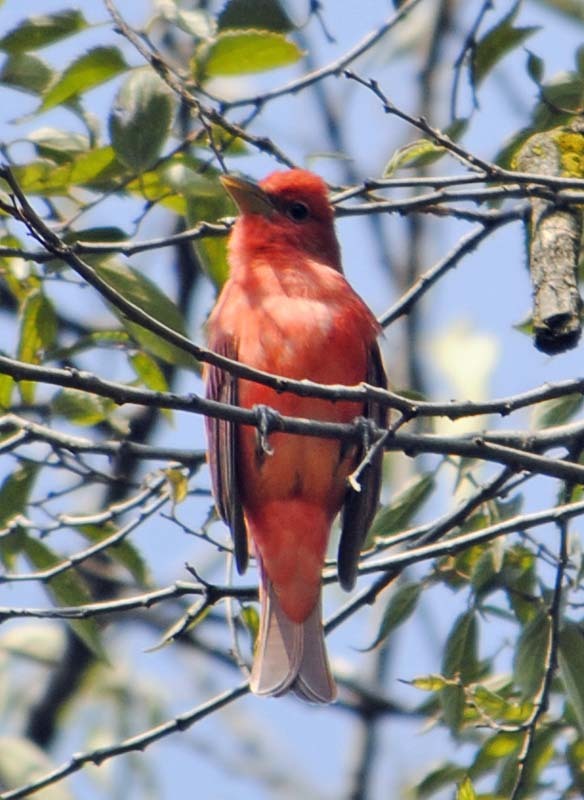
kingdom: Animalia
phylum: Chordata
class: Aves
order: Passeriformes
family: Cardinalidae
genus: Piranga
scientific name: Piranga rubra
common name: Summer tanager
